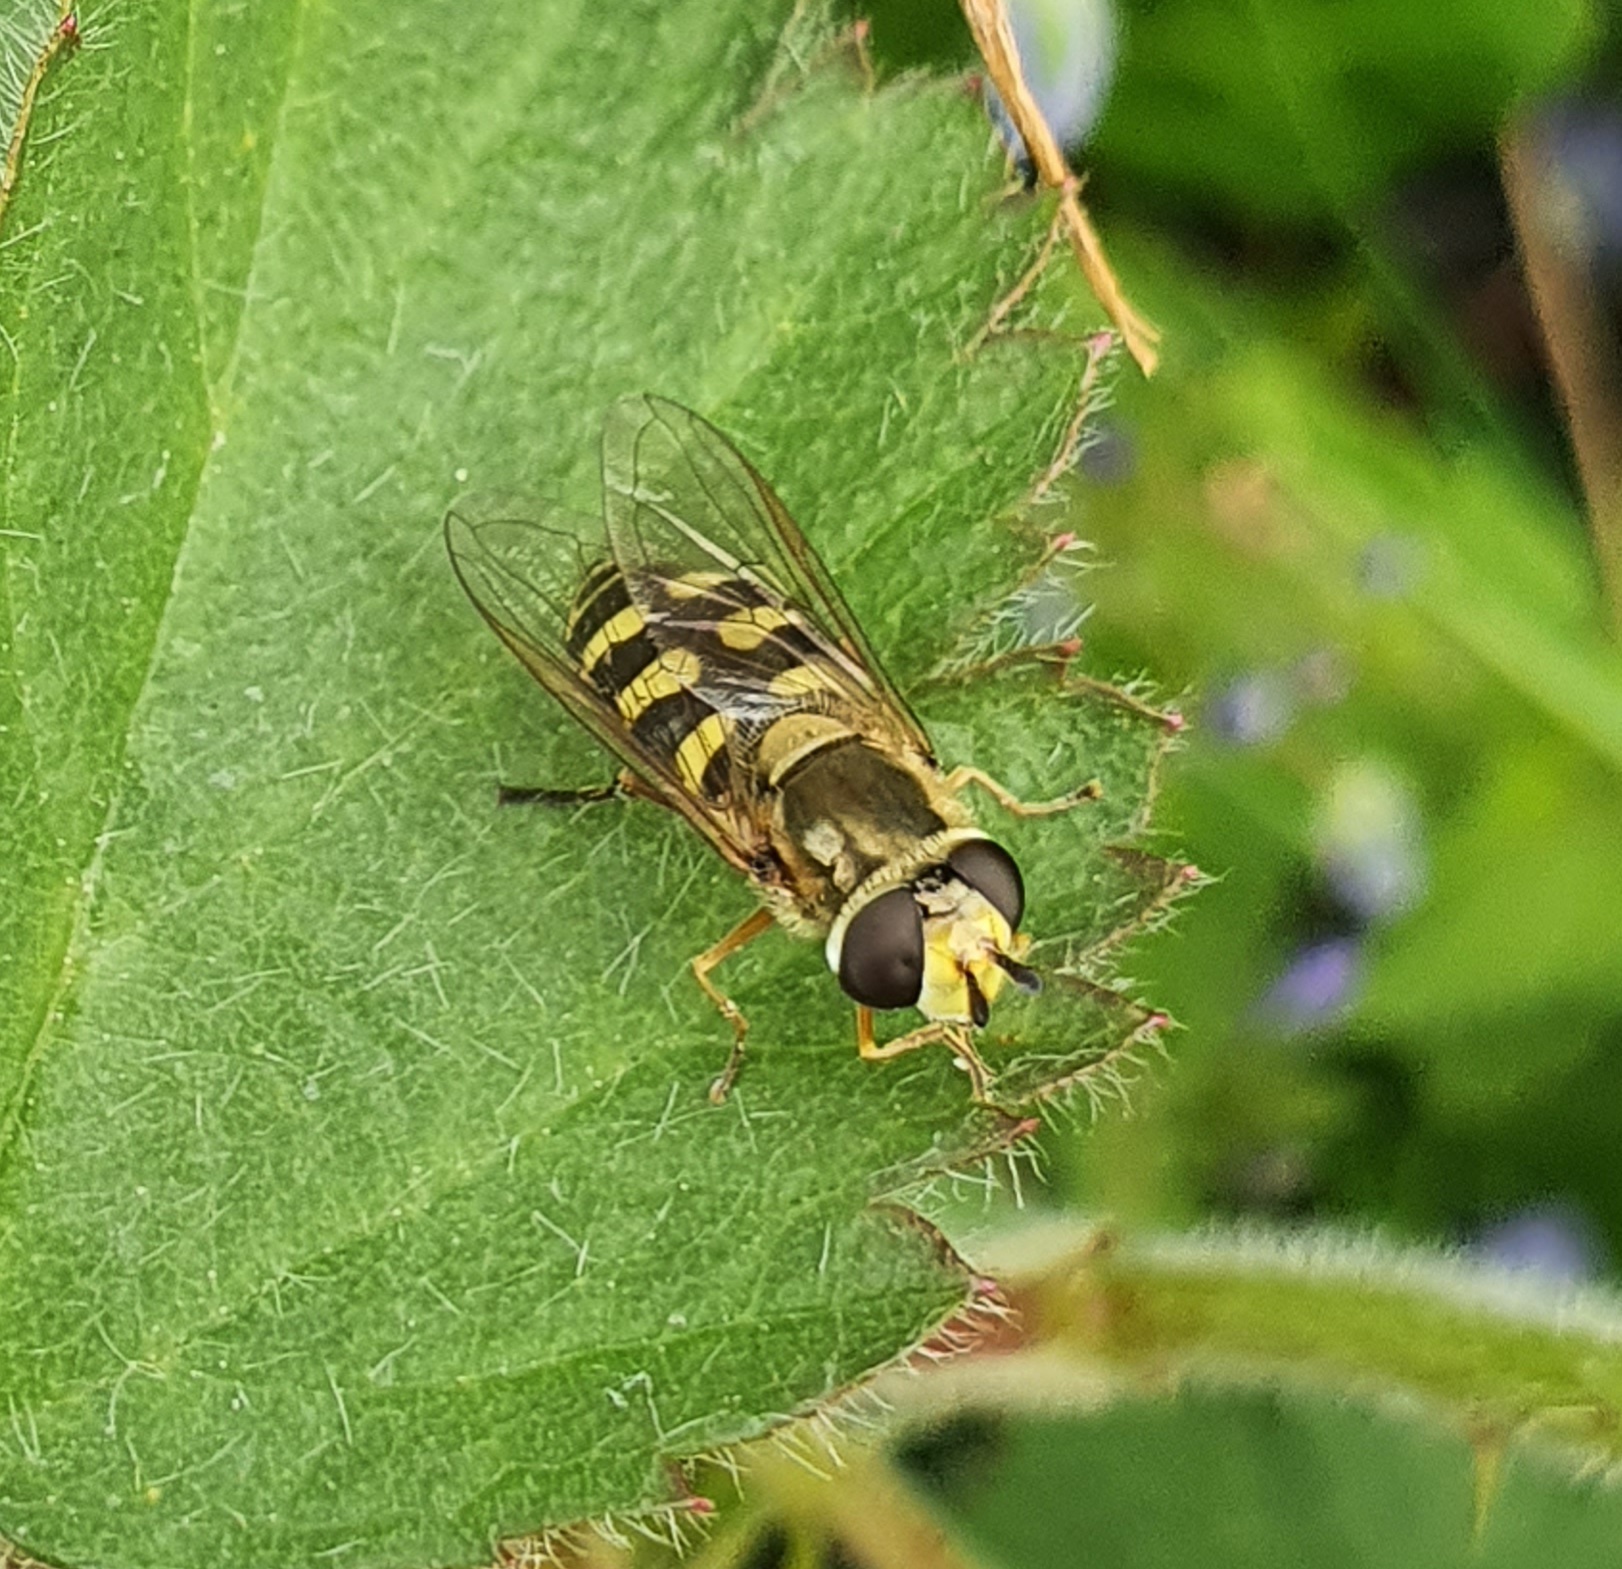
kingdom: Animalia
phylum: Arthropoda
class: Insecta
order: Diptera
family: Syrphidae
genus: Eupeodes
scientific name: Eupeodes corollae
